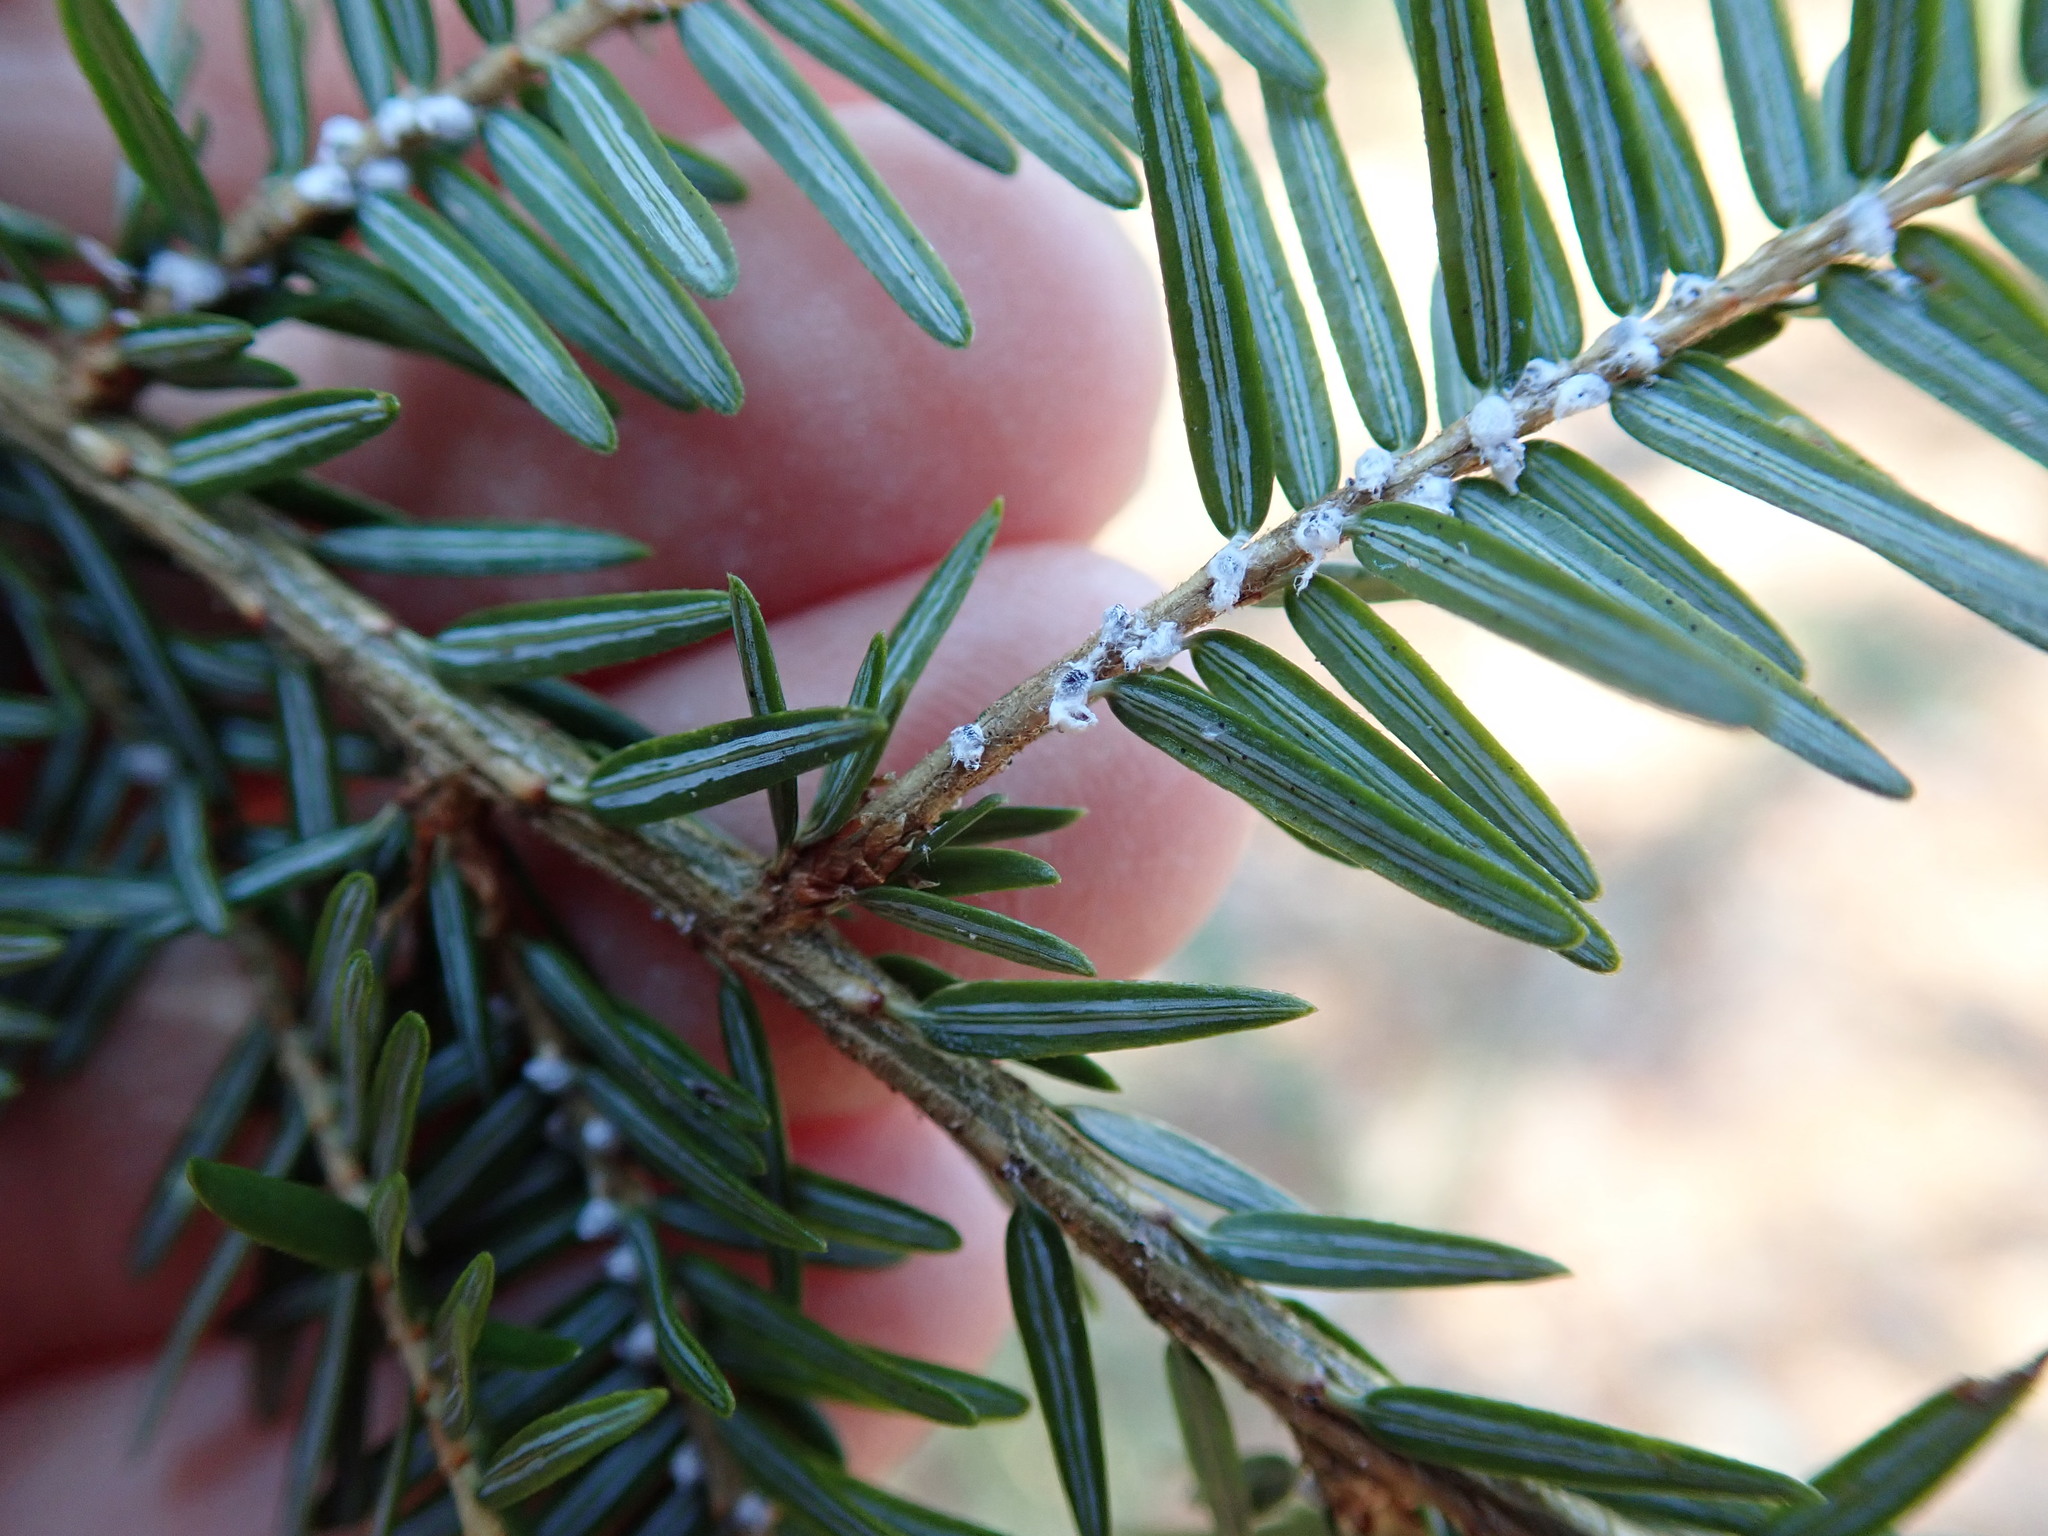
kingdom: Animalia
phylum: Arthropoda
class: Insecta
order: Hemiptera
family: Adelgidae
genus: Adelges
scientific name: Adelges tsugae
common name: Hemlock woolly adelgid
